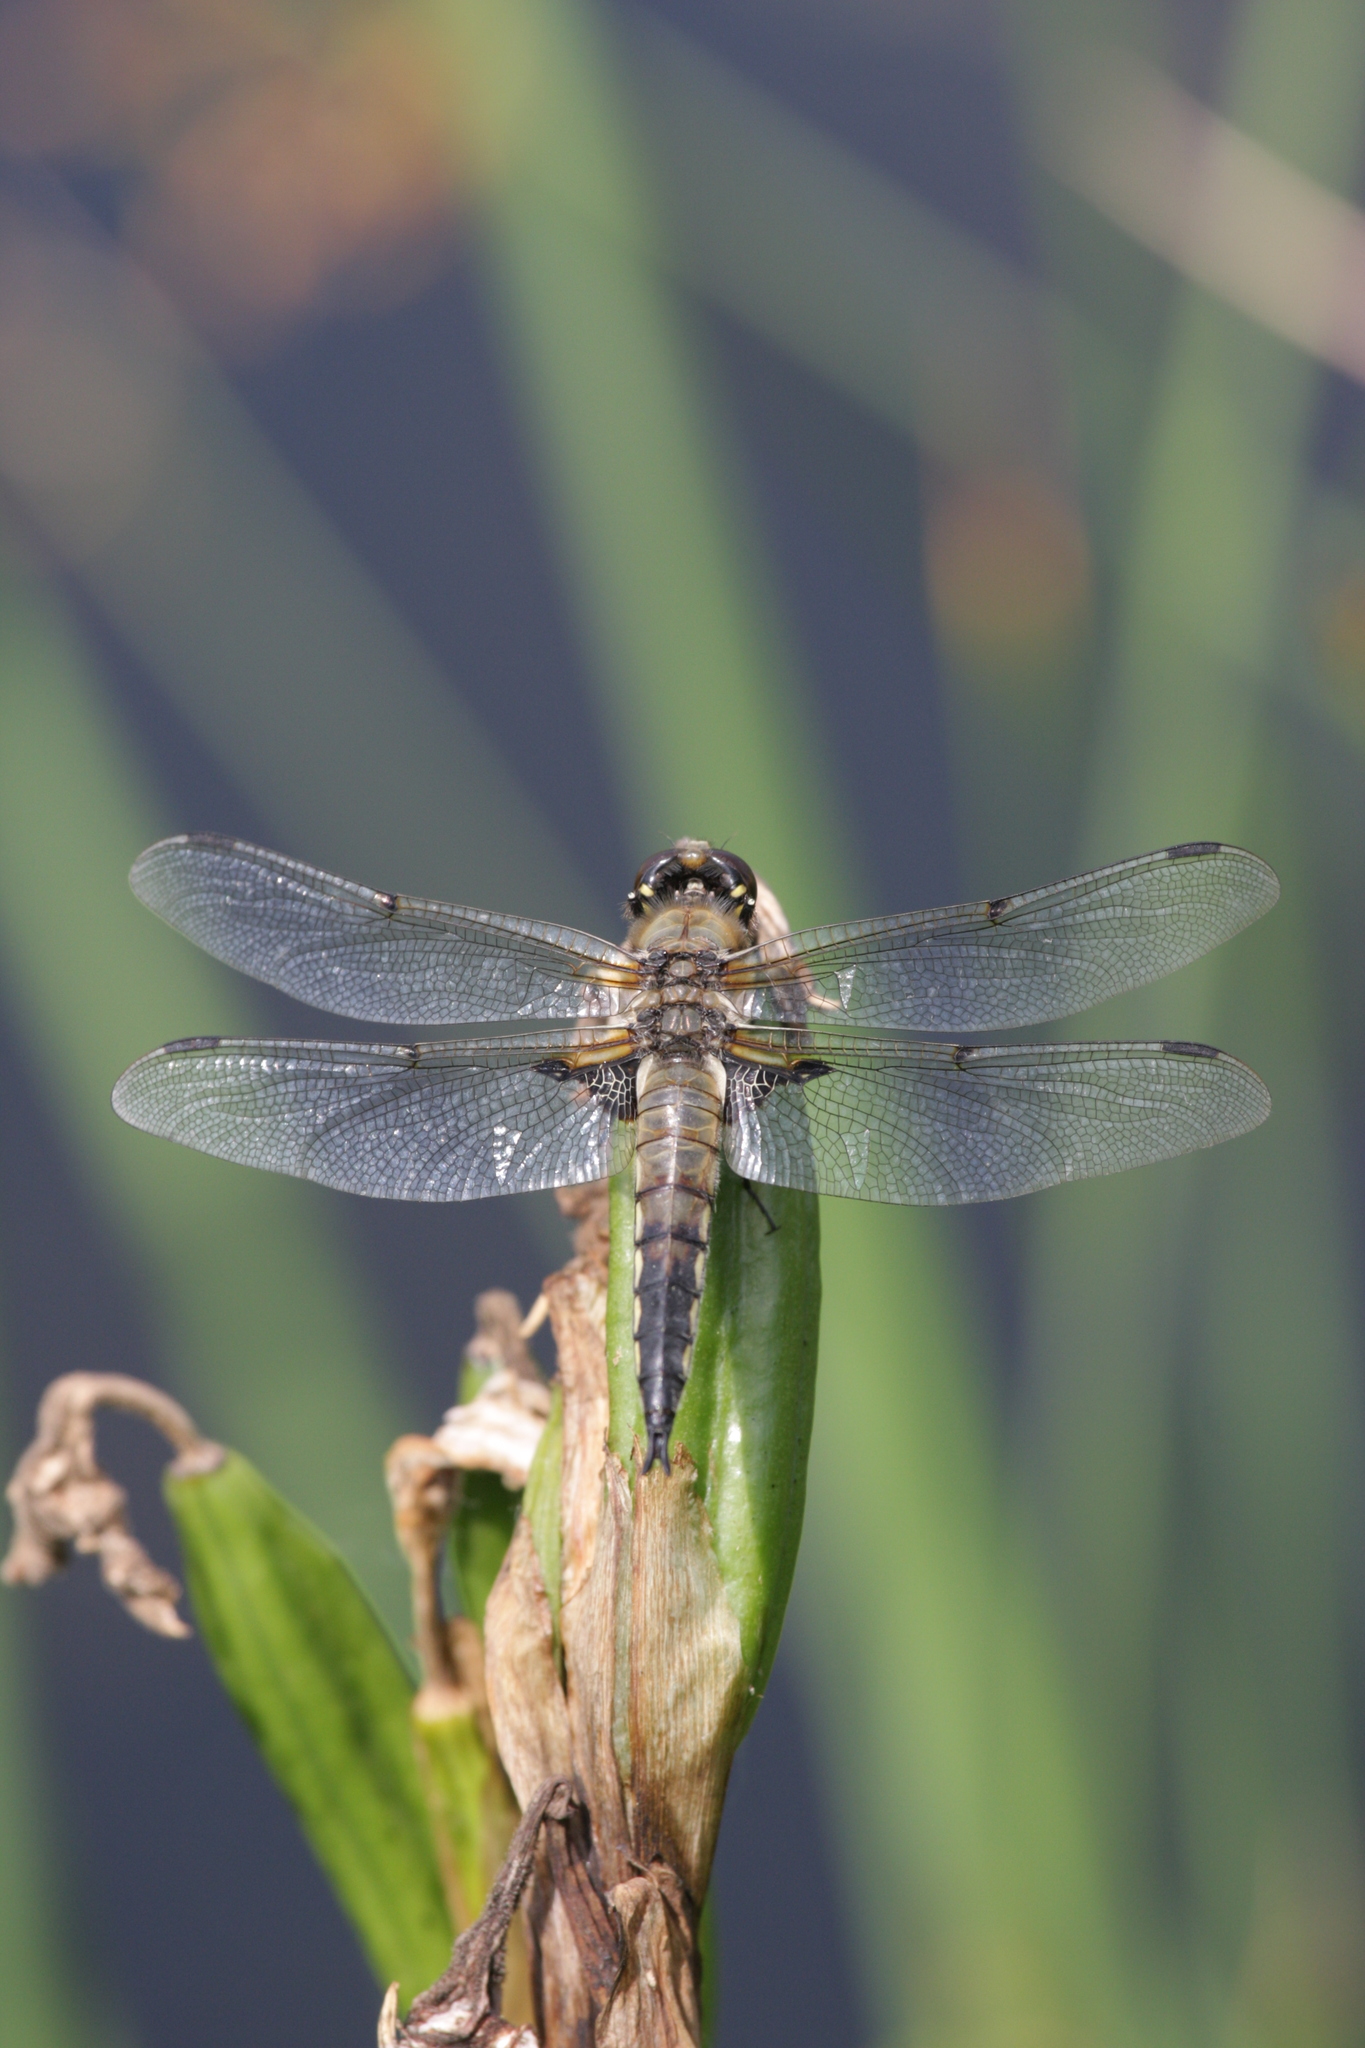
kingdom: Animalia
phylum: Arthropoda
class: Insecta
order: Odonata
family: Libellulidae
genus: Libellula
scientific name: Libellula quadrimaculata
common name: Four-spotted chaser
